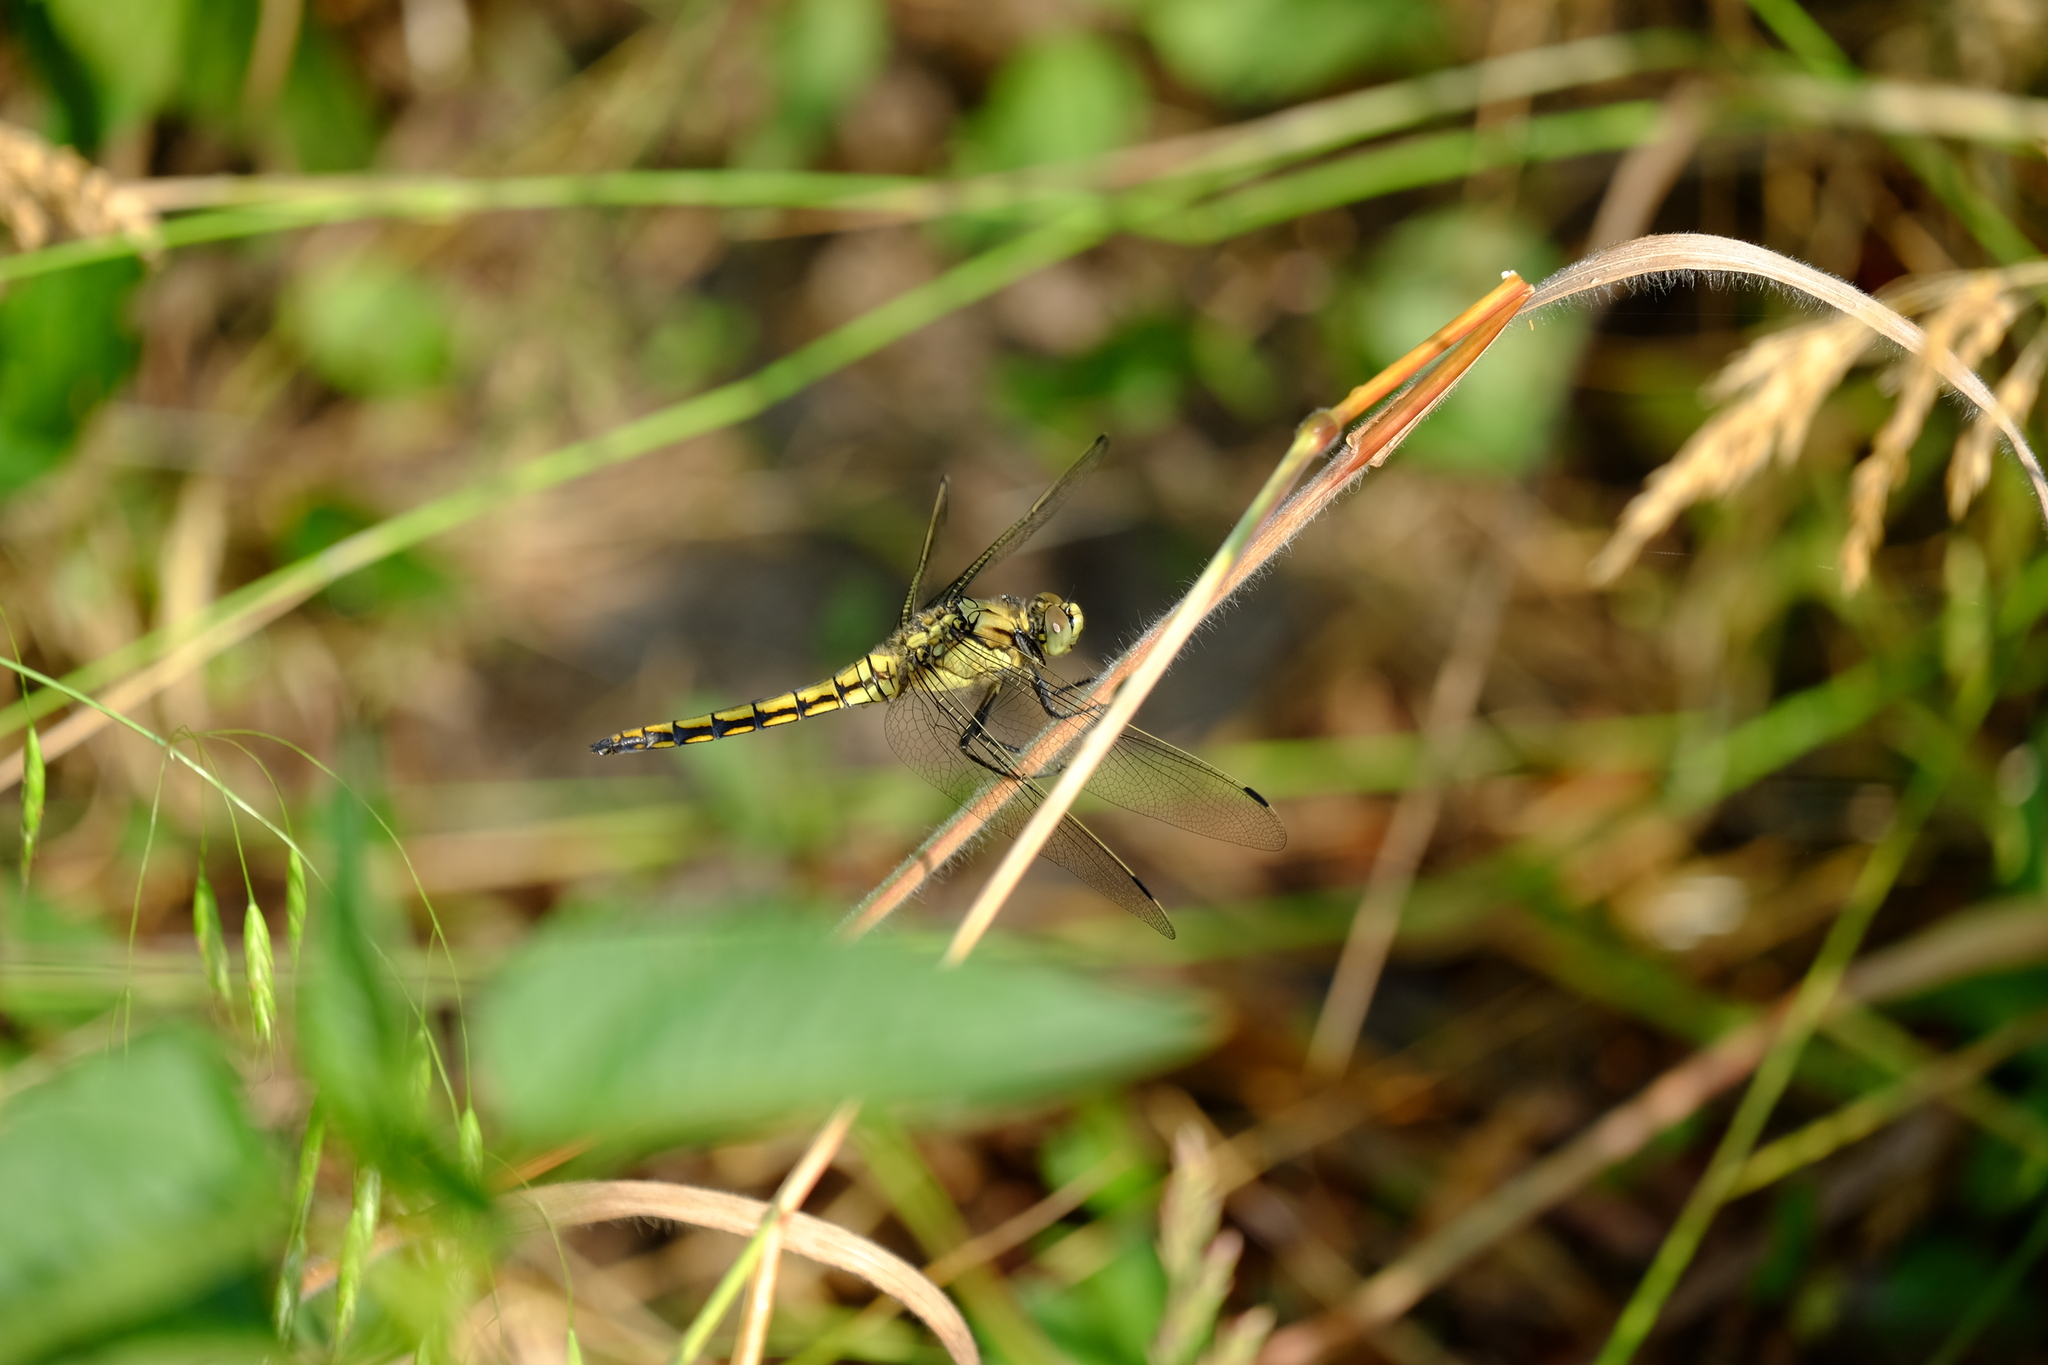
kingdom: Animalia
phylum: Arthropoda
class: Insecta
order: Odonata
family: Libellulidae
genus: Orthetrum
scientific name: Orthetrum cancellatum
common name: Black-tailed skimmer
